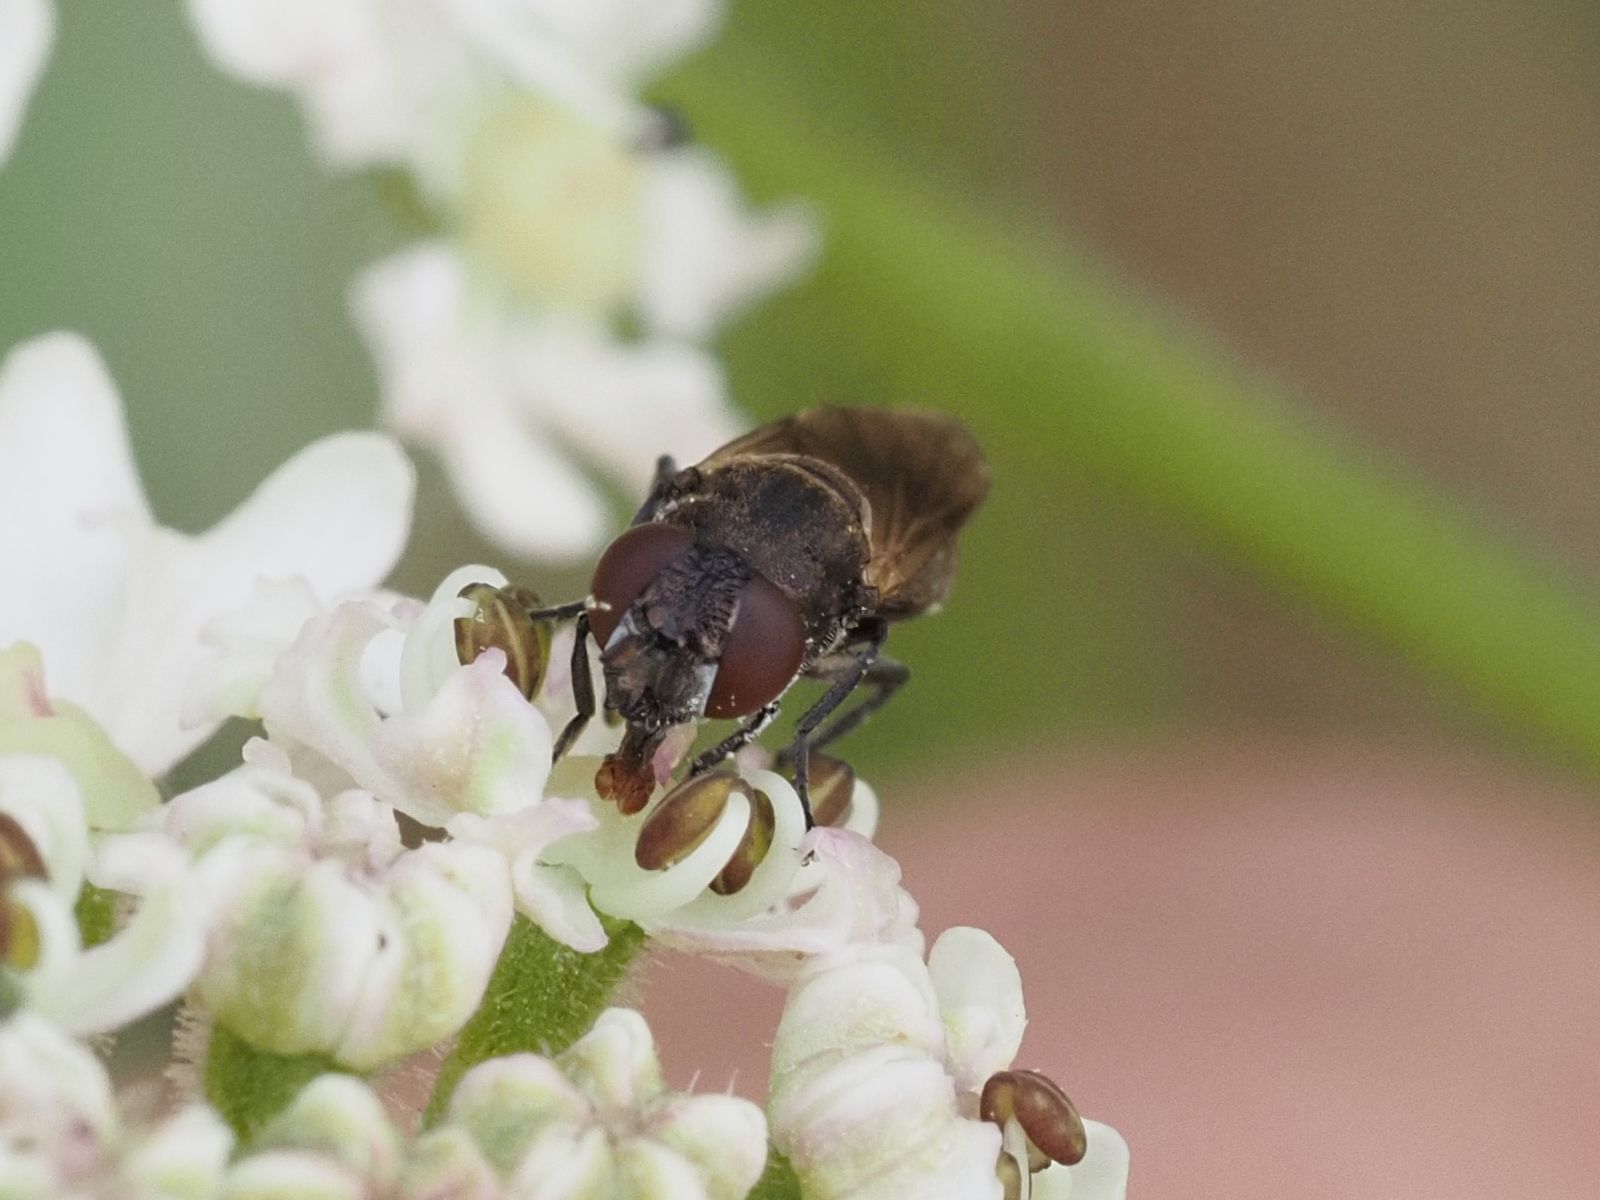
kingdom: Animalia
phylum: Arthropoda
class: Insecta
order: Diptera
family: Syrphidae
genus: Orthonevra
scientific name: Orthonevra nobilis
